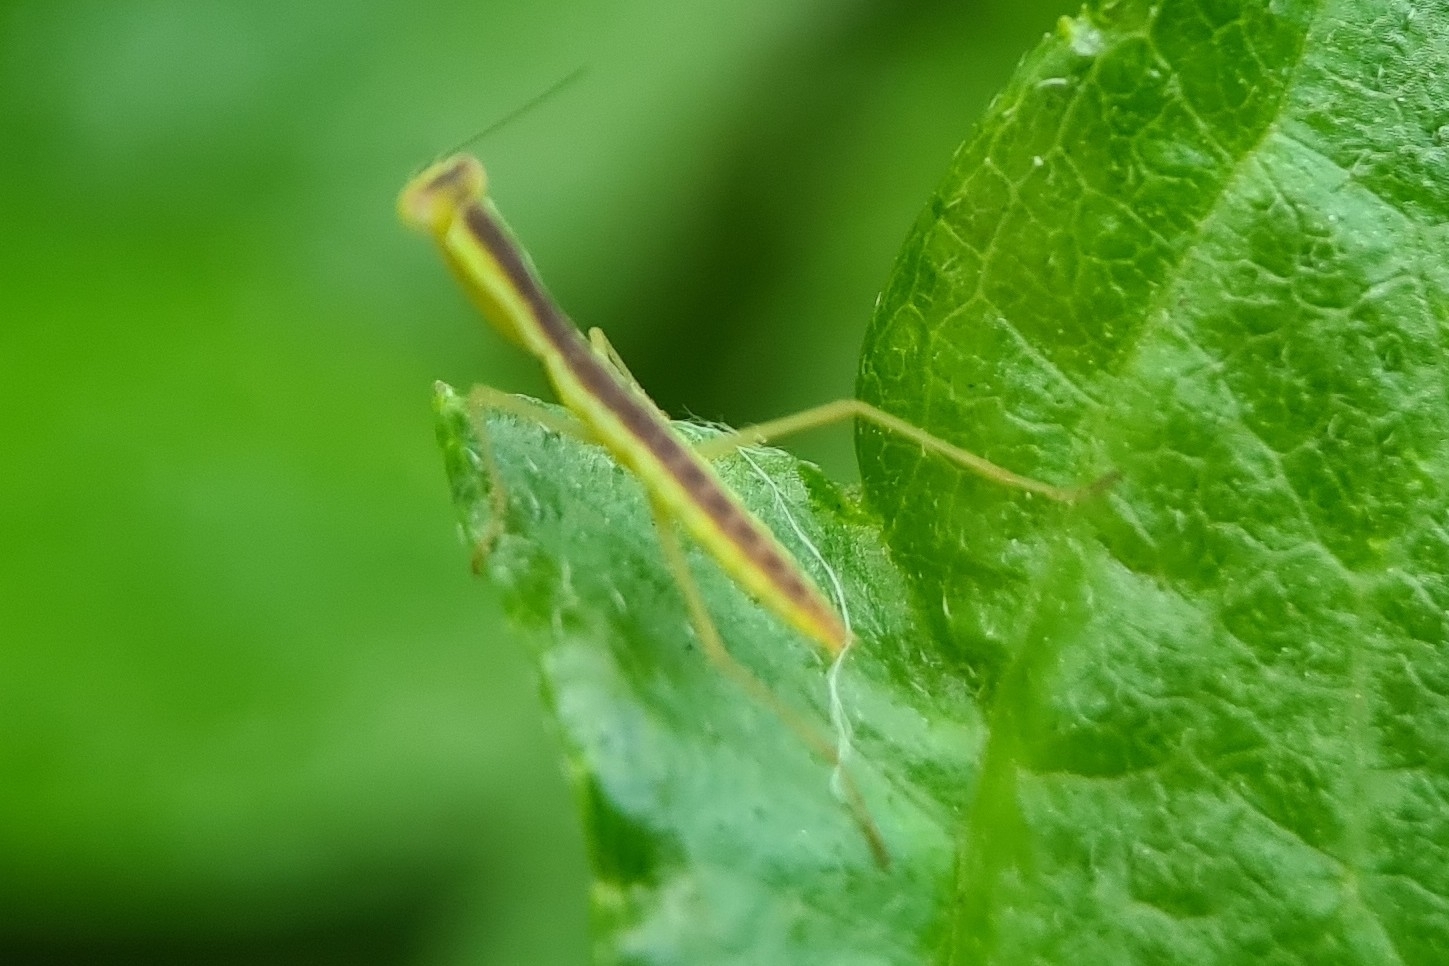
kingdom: Animalia
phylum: Arthropoda
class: Insecta
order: Mantodea
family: Mantidae
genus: Orthodera
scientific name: Orthodera ministralis
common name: Mantis
